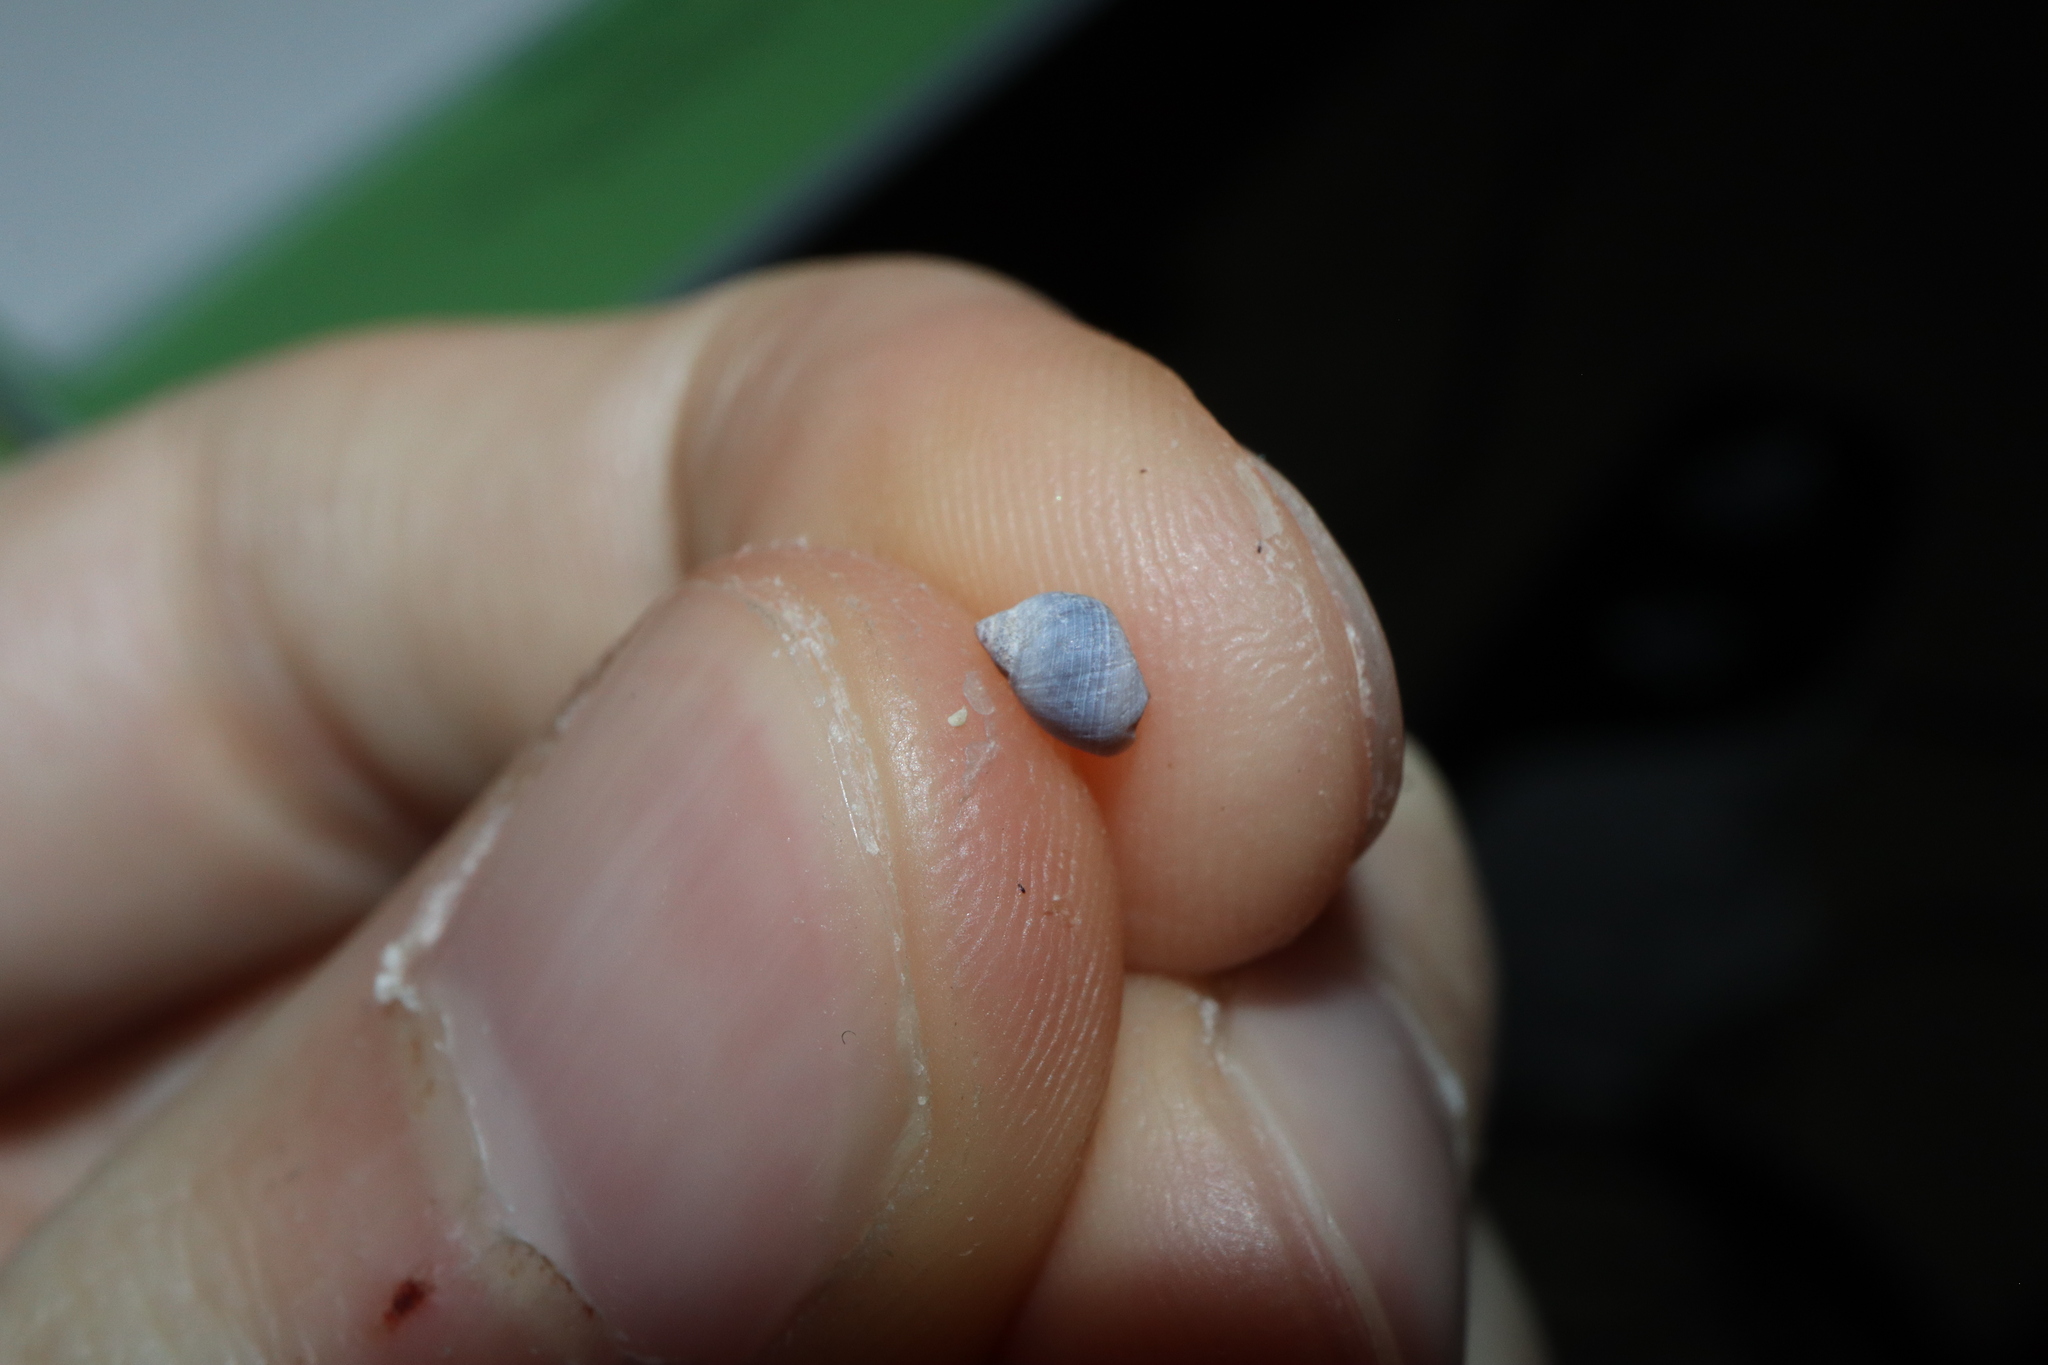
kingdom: Animalia
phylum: Mollusca
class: Gastropoda
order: Littorinimorpha
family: Littorinidae
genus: Austrolittorina
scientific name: Austrolittorina unifasciata
